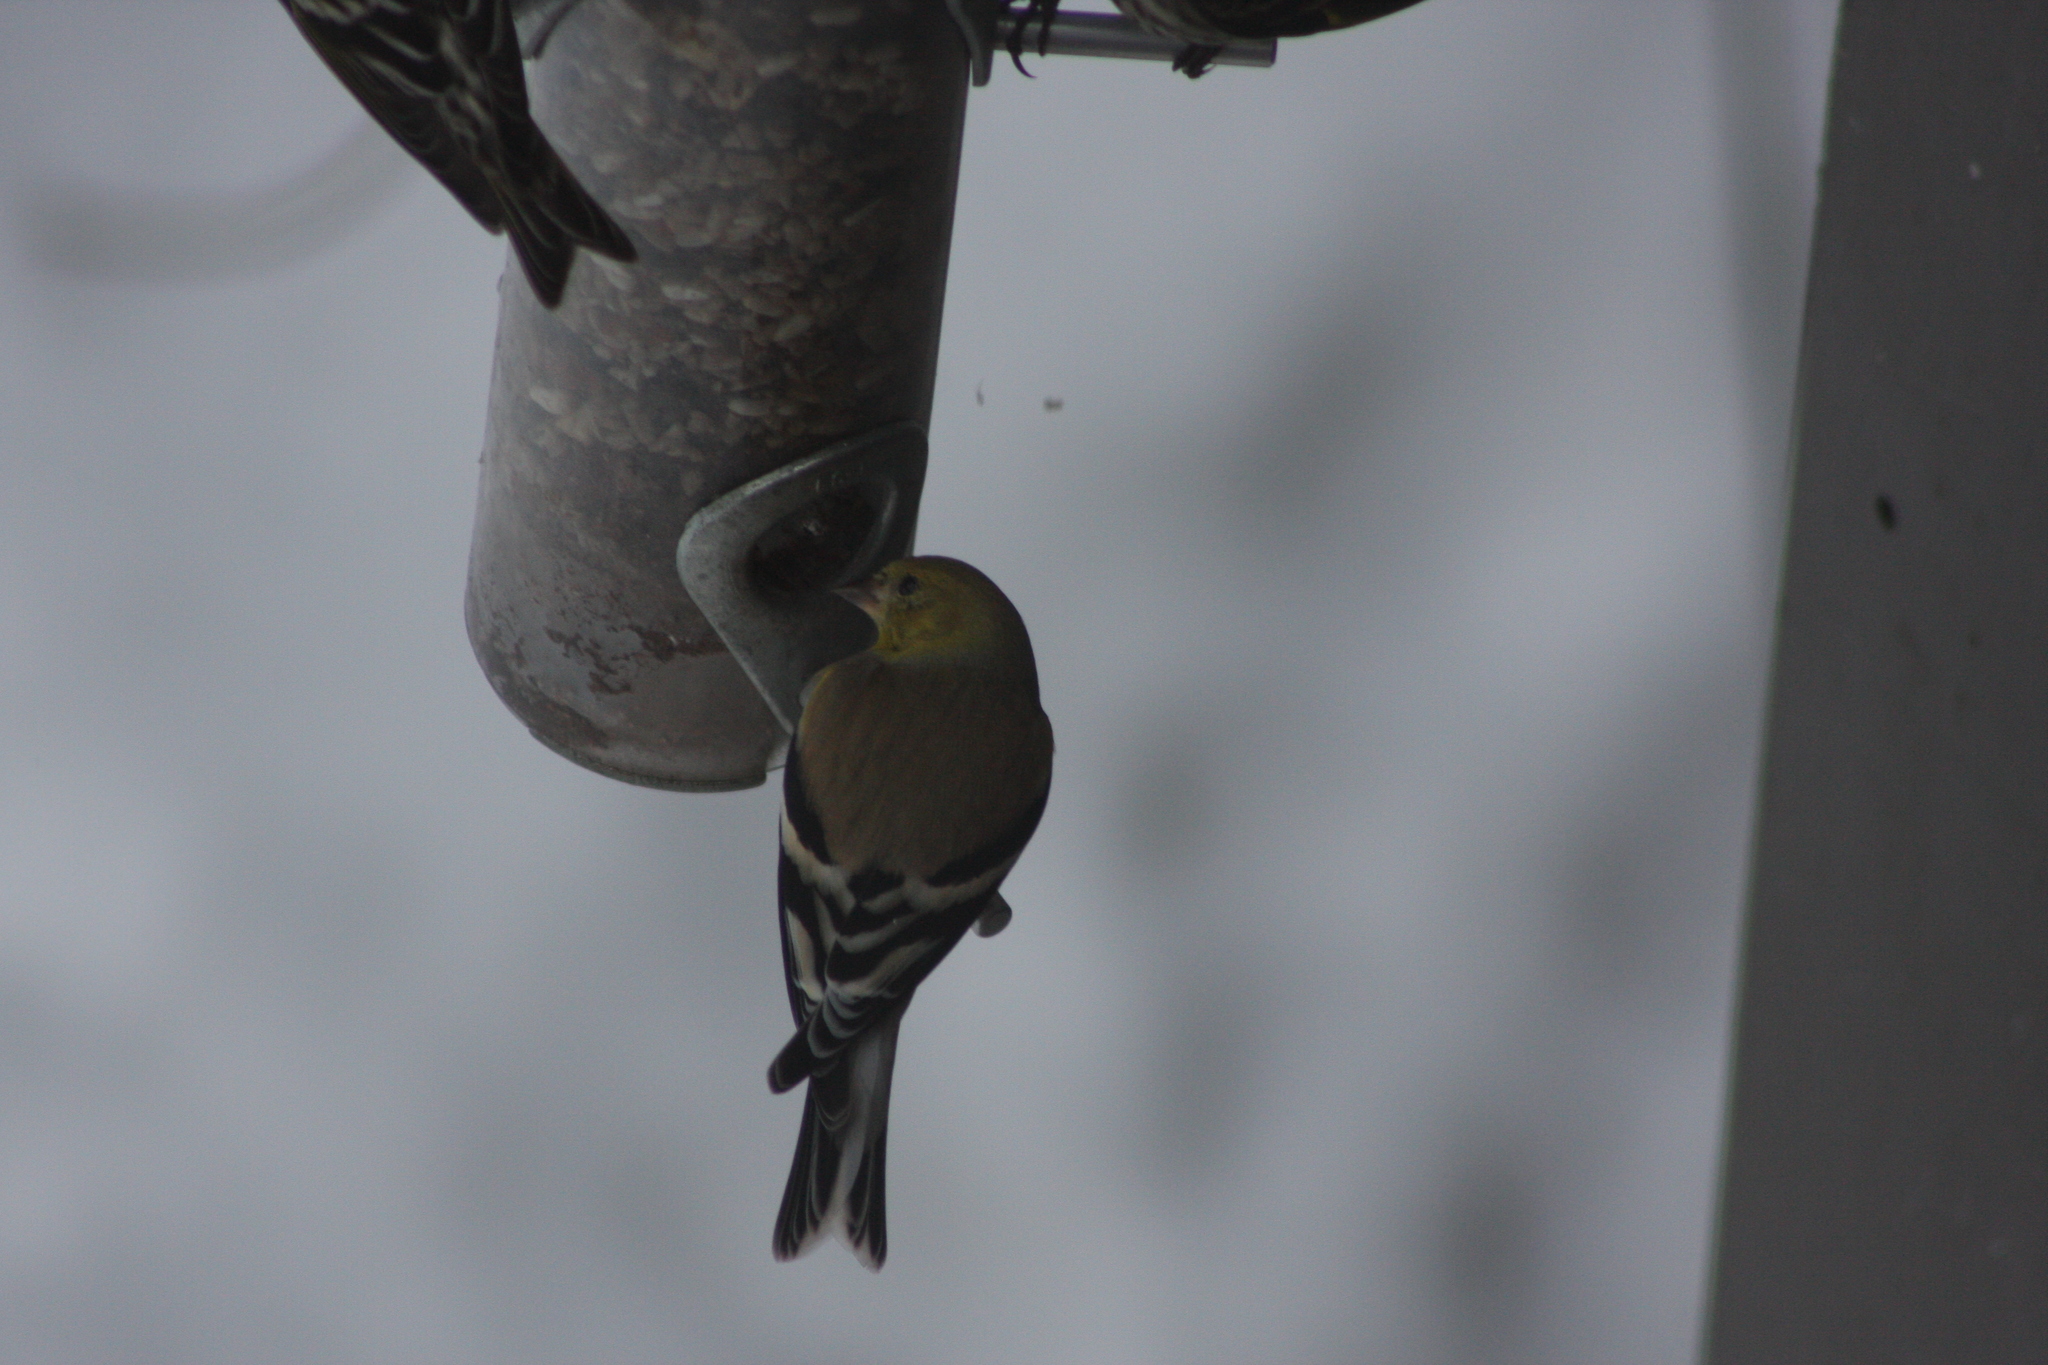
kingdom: Animalia
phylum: Chordata
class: Aves
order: Passeriformes
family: Fringillidae
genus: Spinus
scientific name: Spinus tristis
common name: American goldfinch
